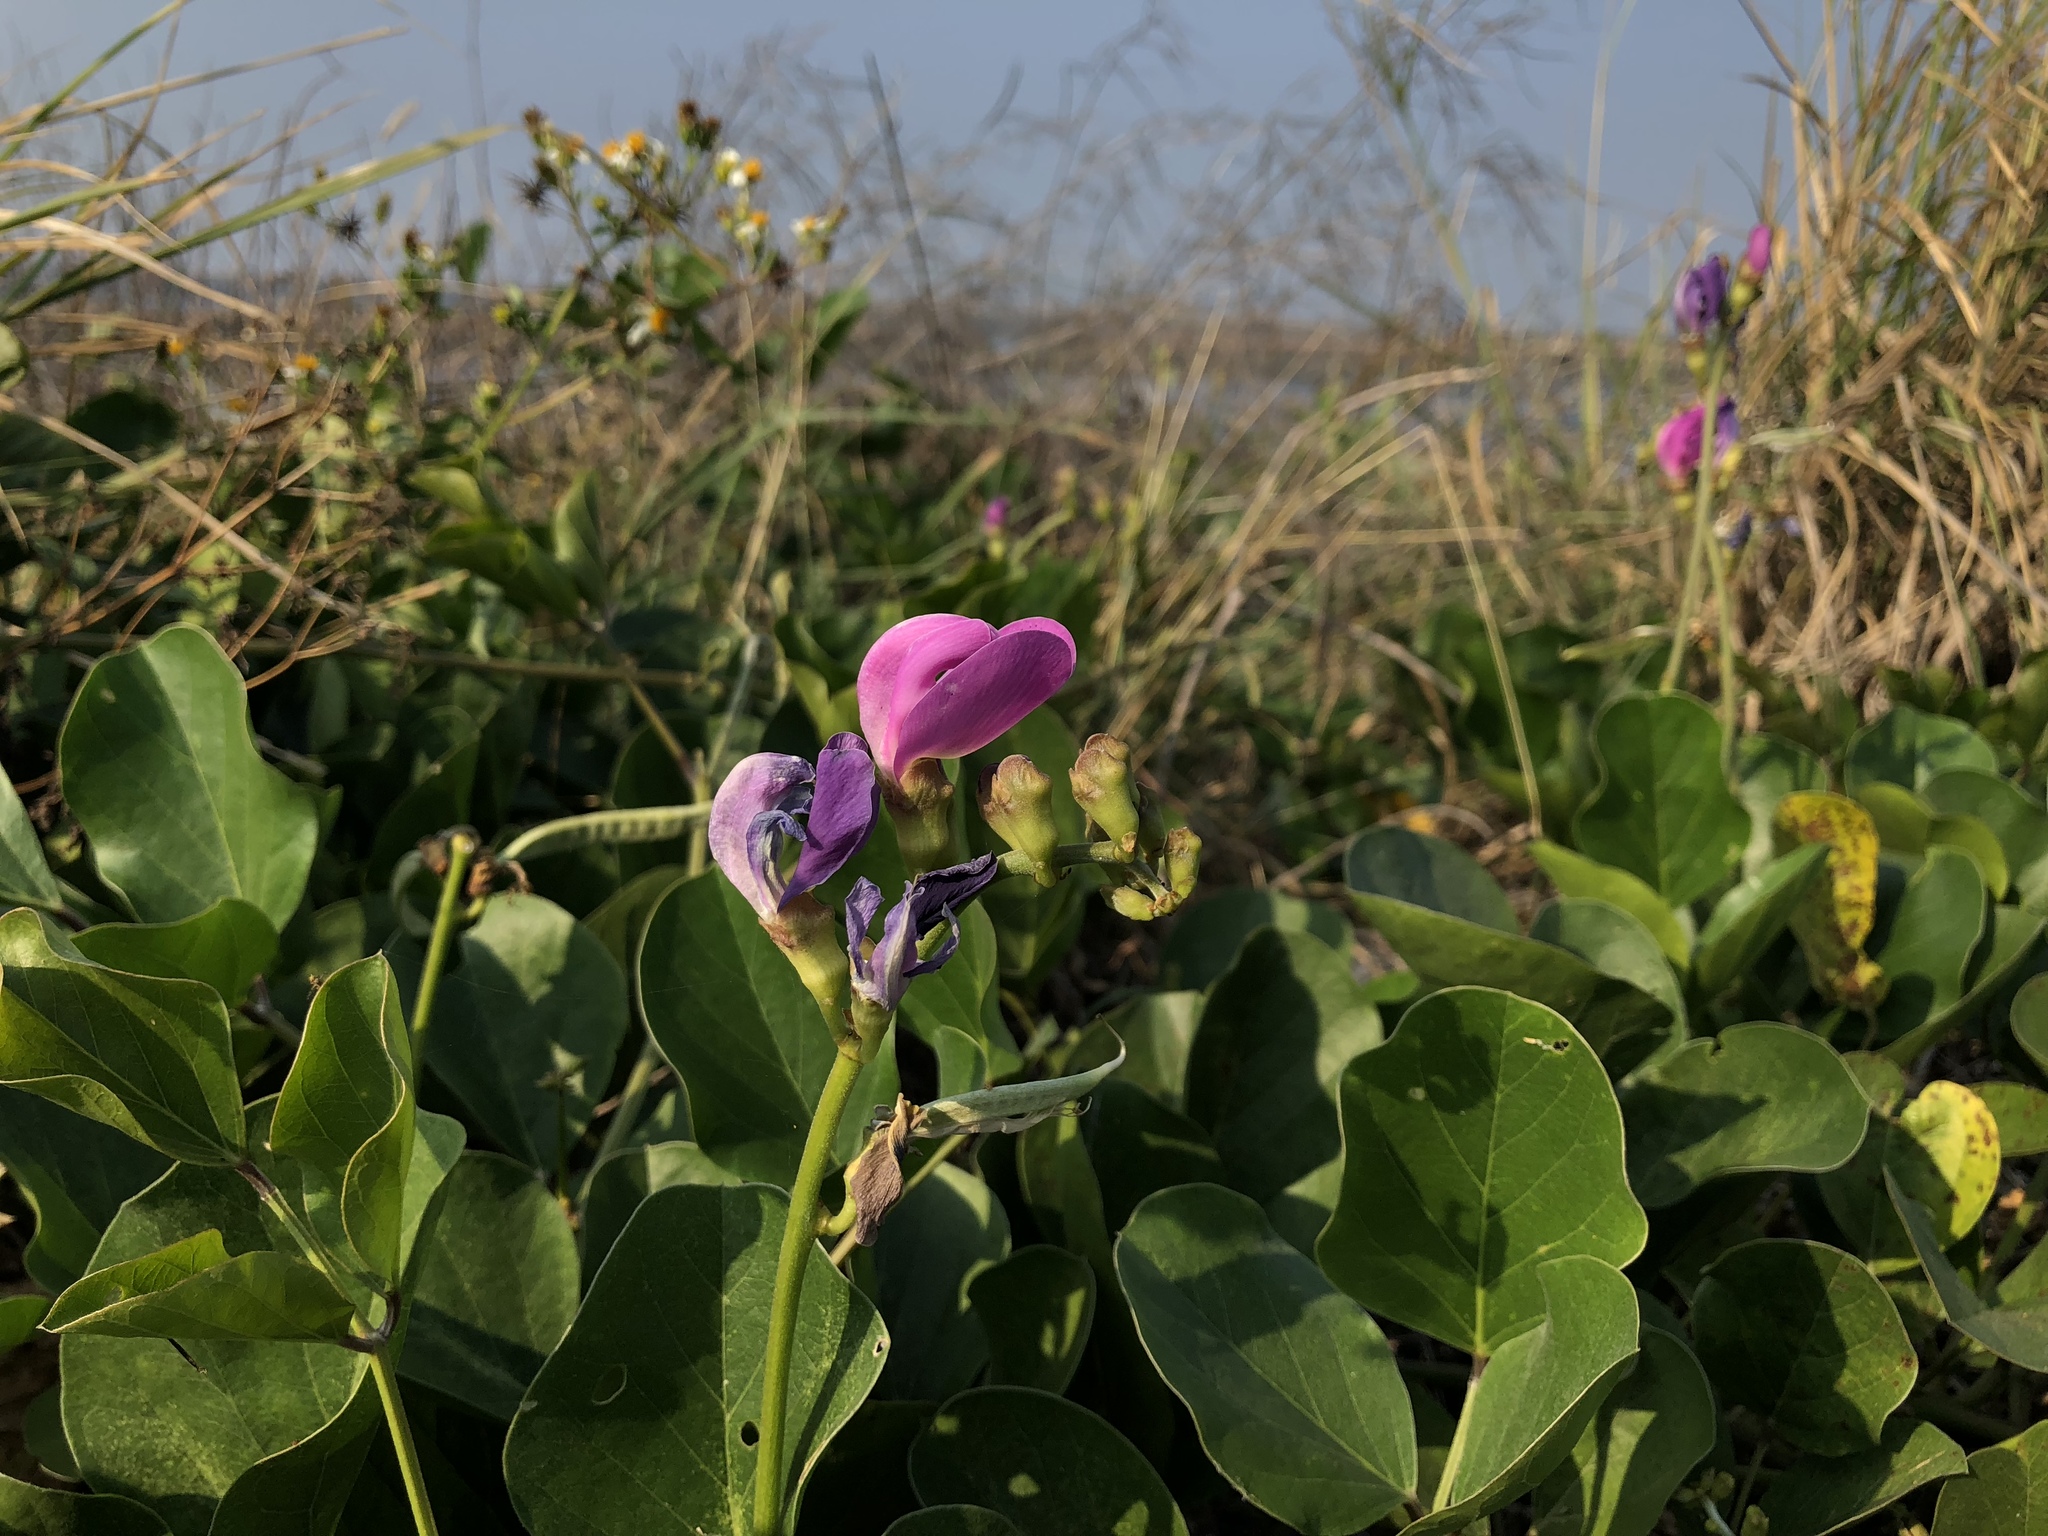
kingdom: Plantae
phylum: Tracheophyta
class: Magnoliopsida
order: Fabales
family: Fabaceae
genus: Canavalia
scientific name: Canavalia lineata
